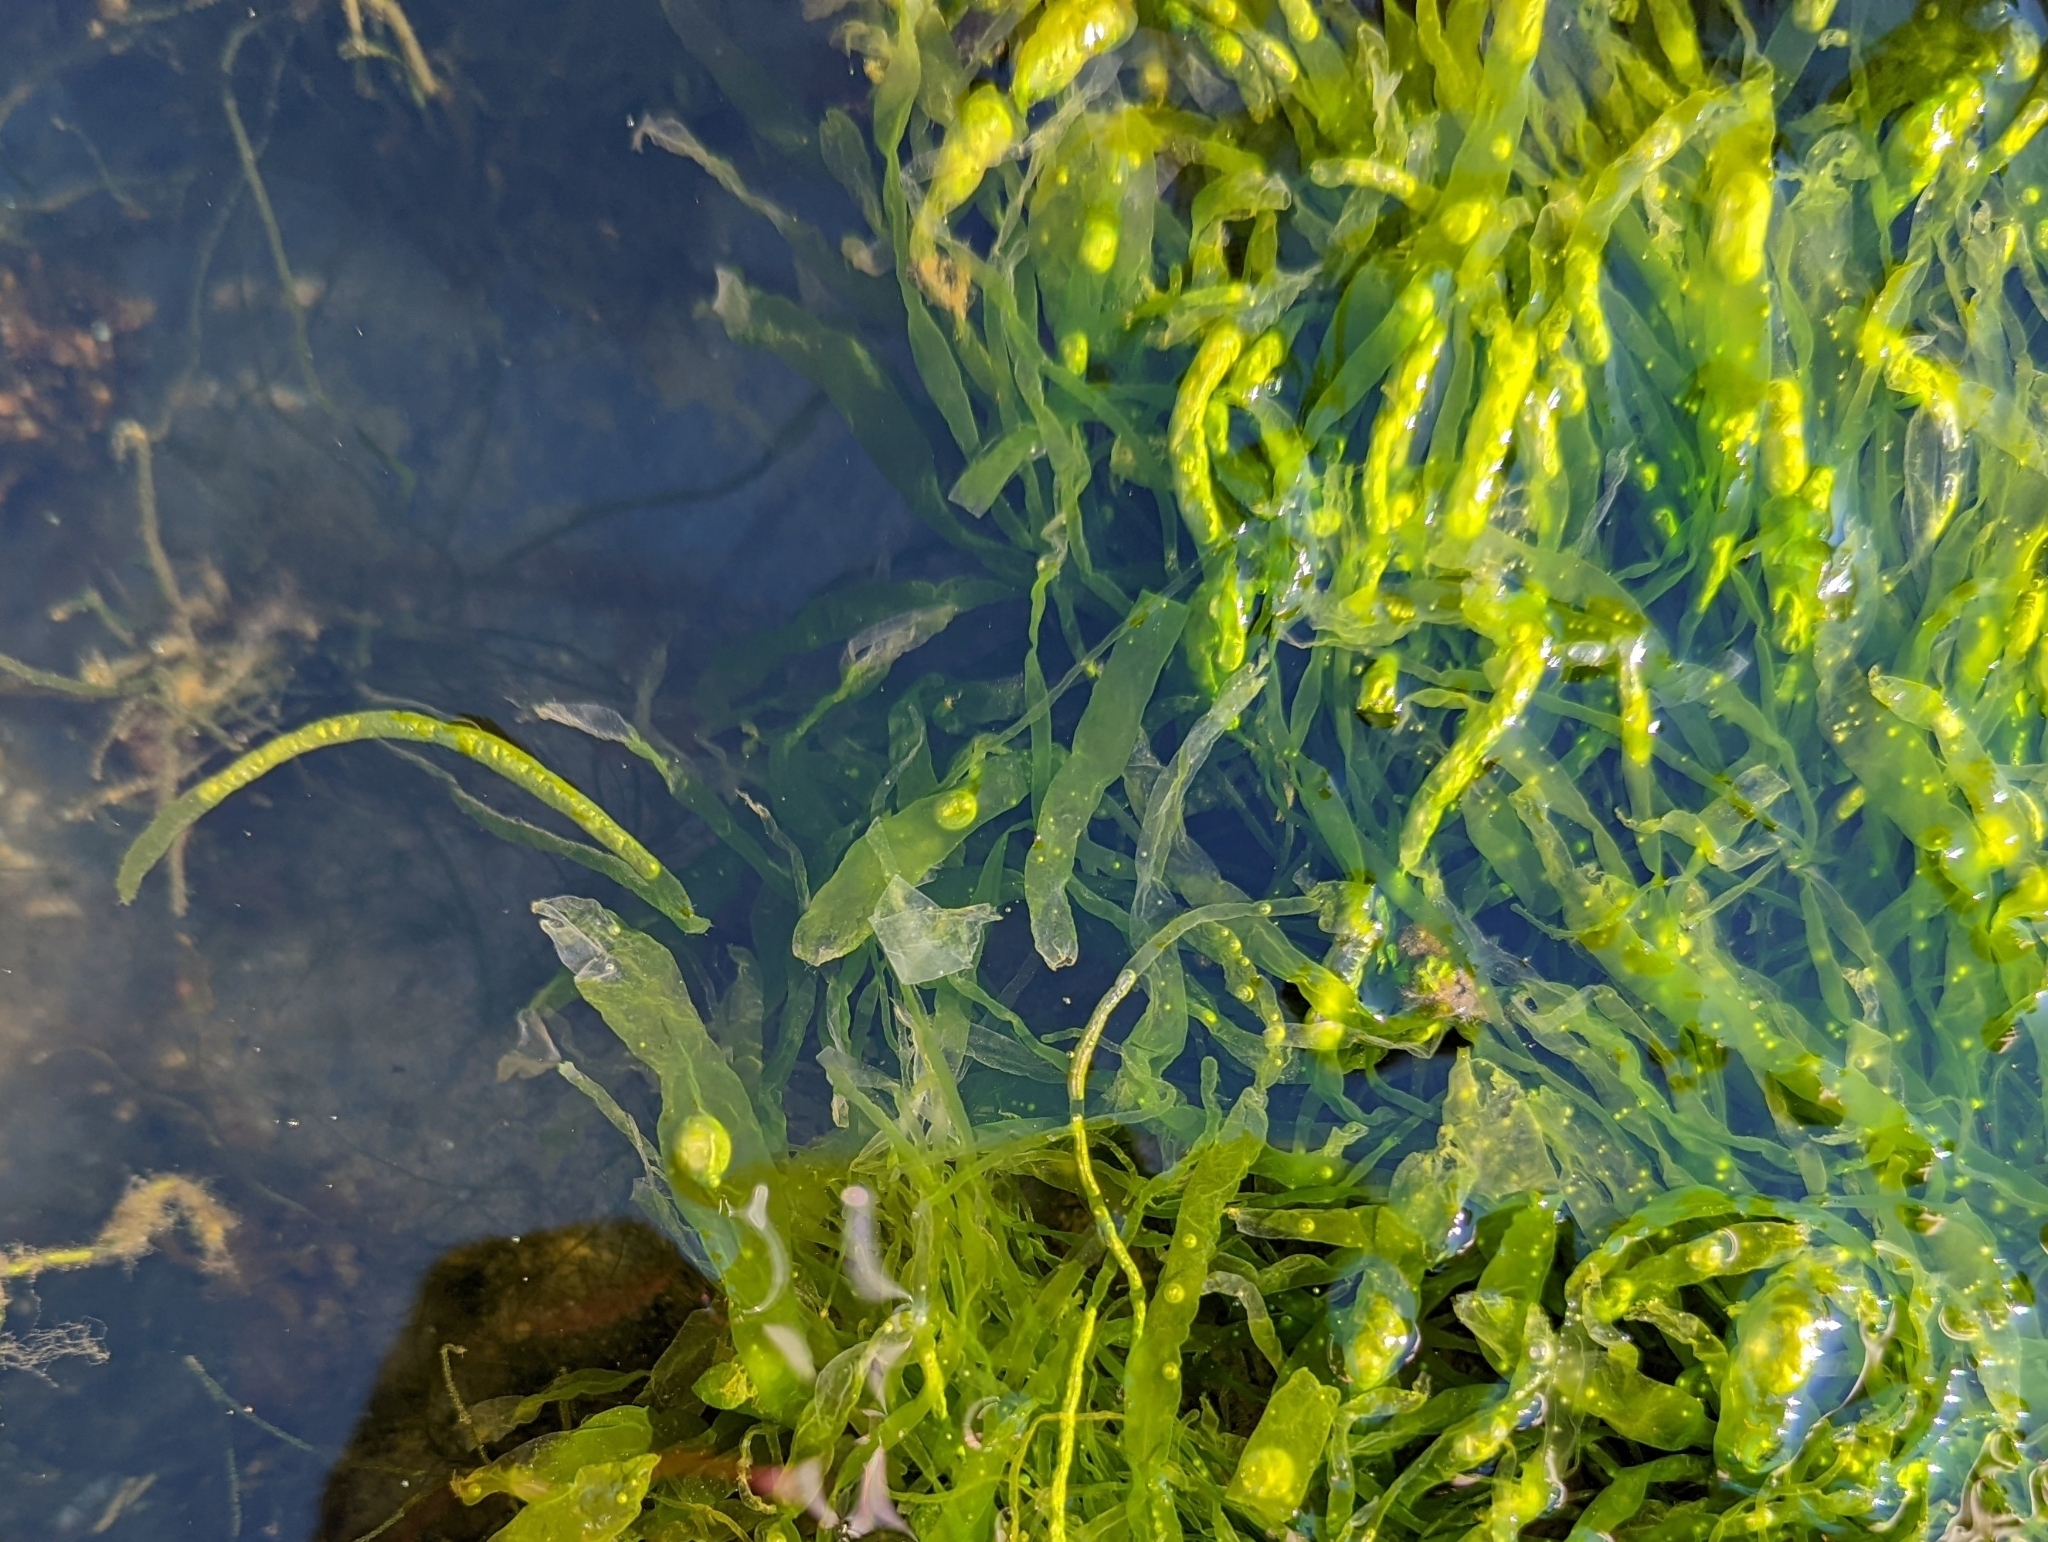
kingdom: Plantae
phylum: Chlorophyta
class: Ulvophyceae
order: Ulvales
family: Ulvaceae
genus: Ulva
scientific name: Ulva intestinalis
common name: Gut weed
